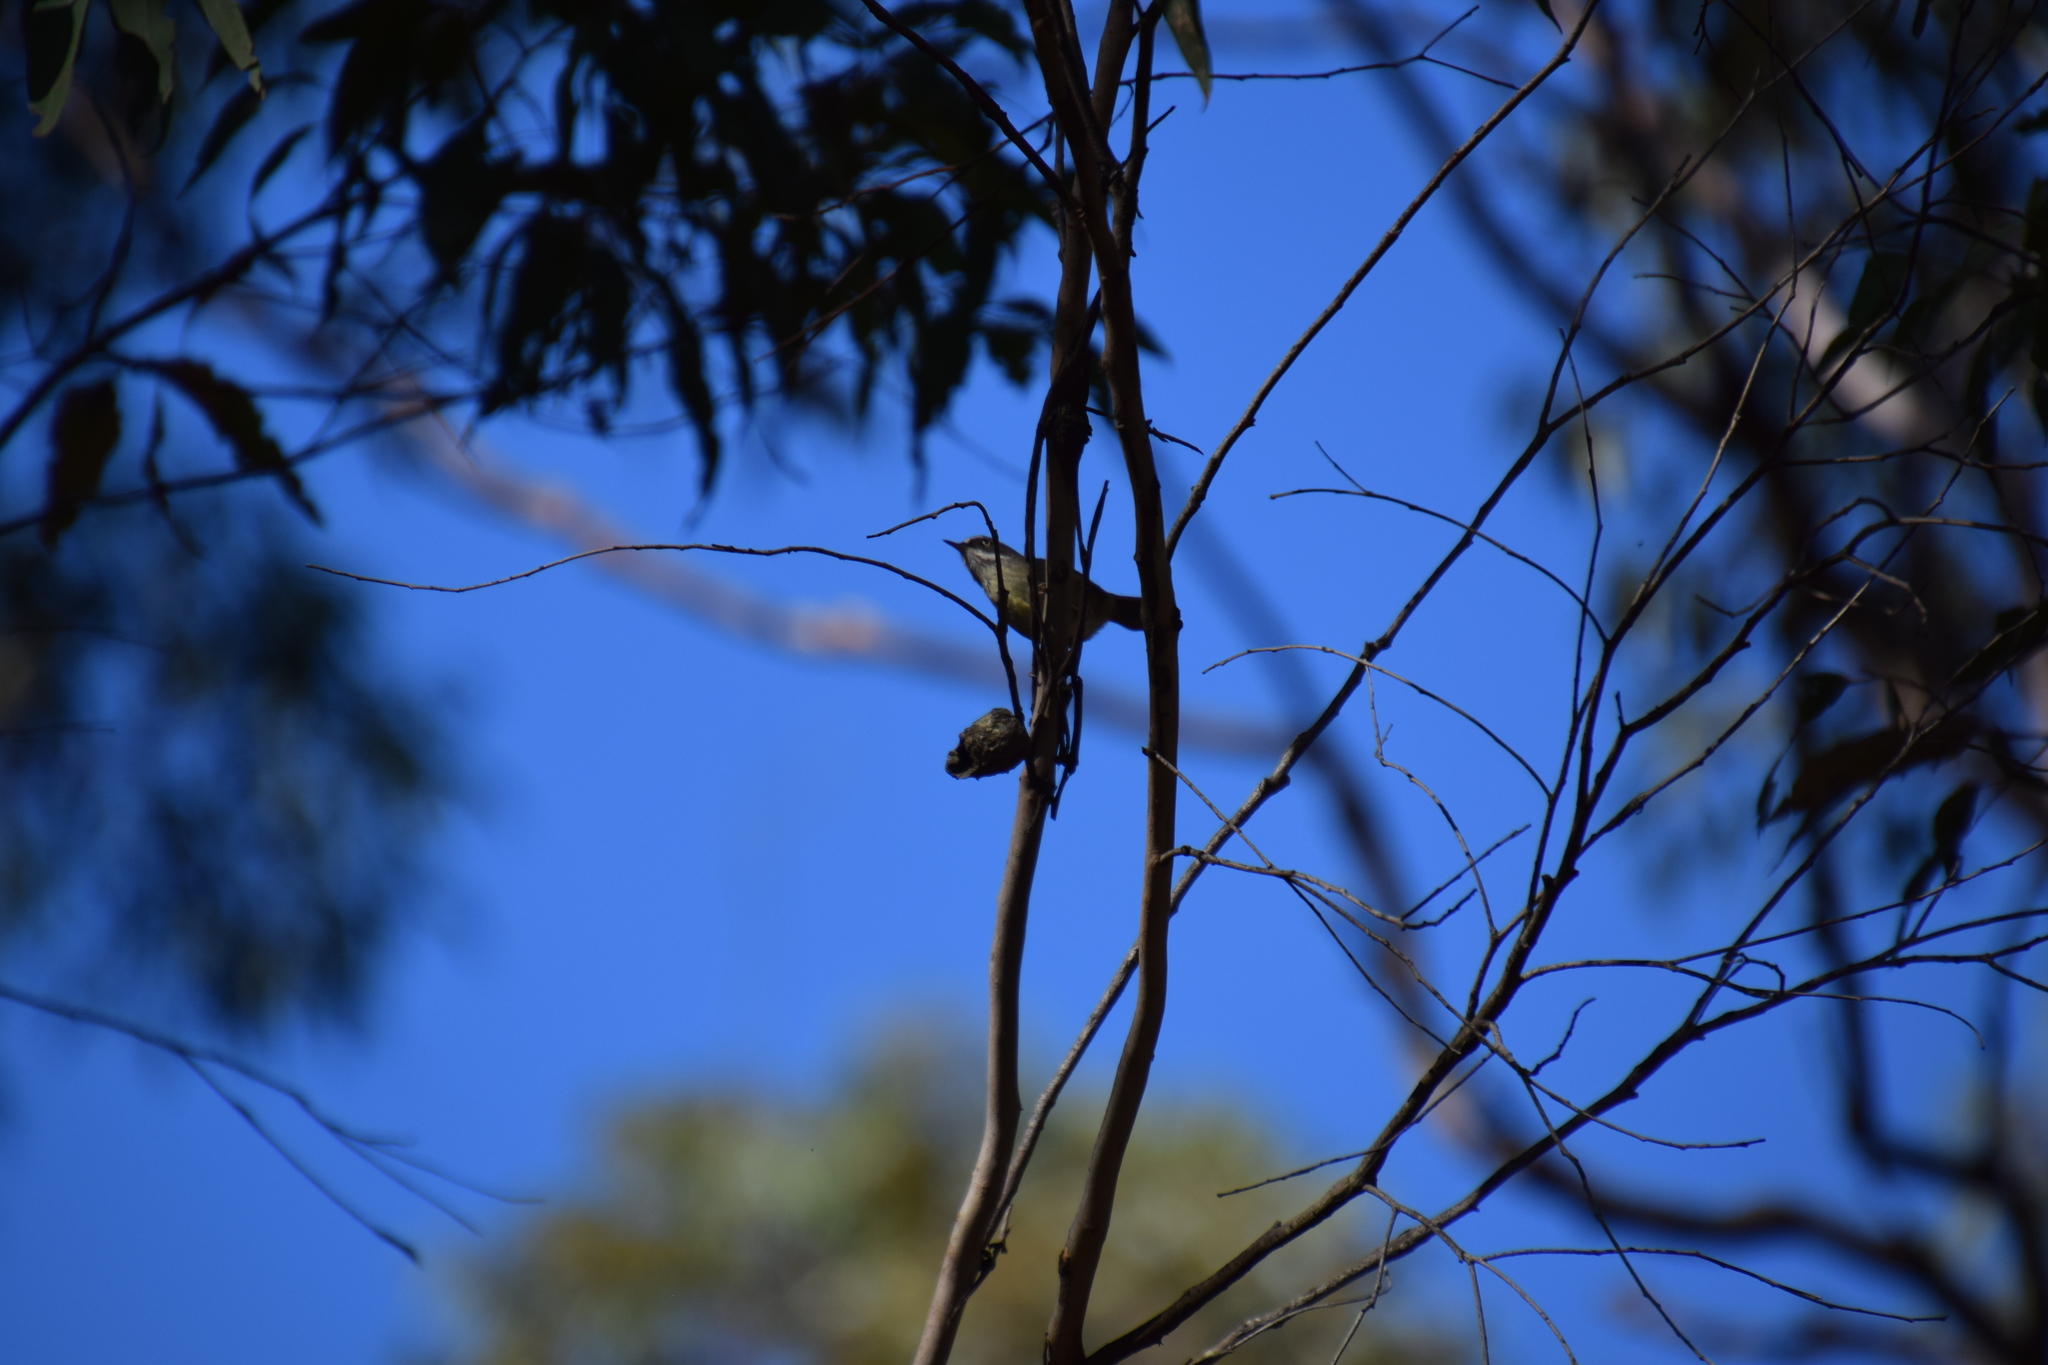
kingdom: Animalia
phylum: Chordata
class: Aves
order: Passeriformes
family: Acanthizidae
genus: Sericornis
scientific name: Sericornis frontalis
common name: White-browed scrubwren
